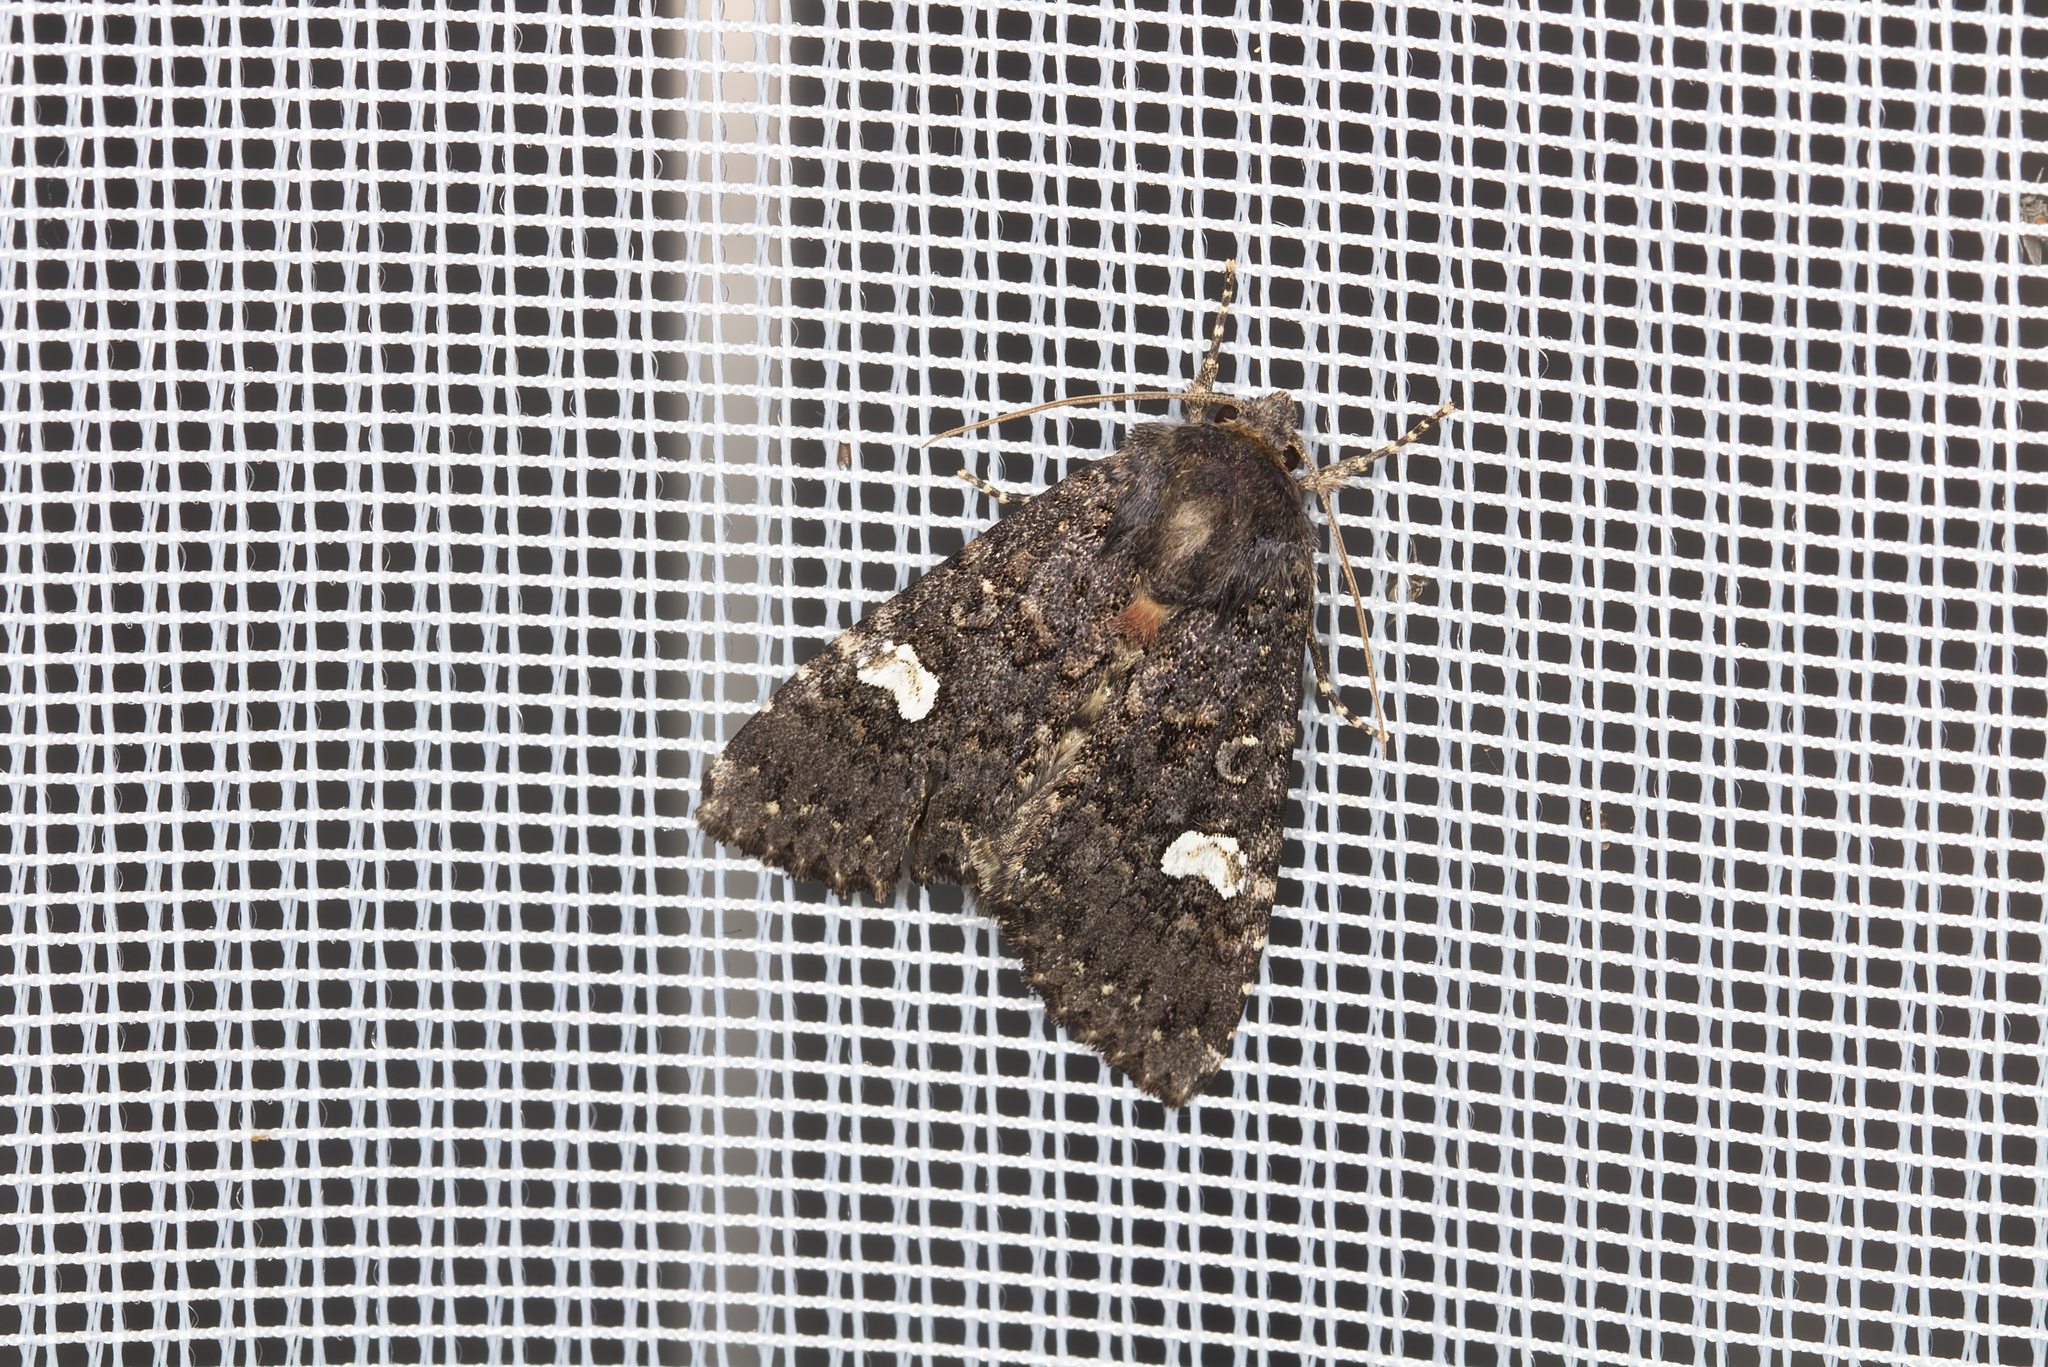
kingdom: Animalia
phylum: Arthropoda
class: Insecta
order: Lepidoptera
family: Noctuidae
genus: Melanchra
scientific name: Melanchra persicariae
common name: Dot moth
